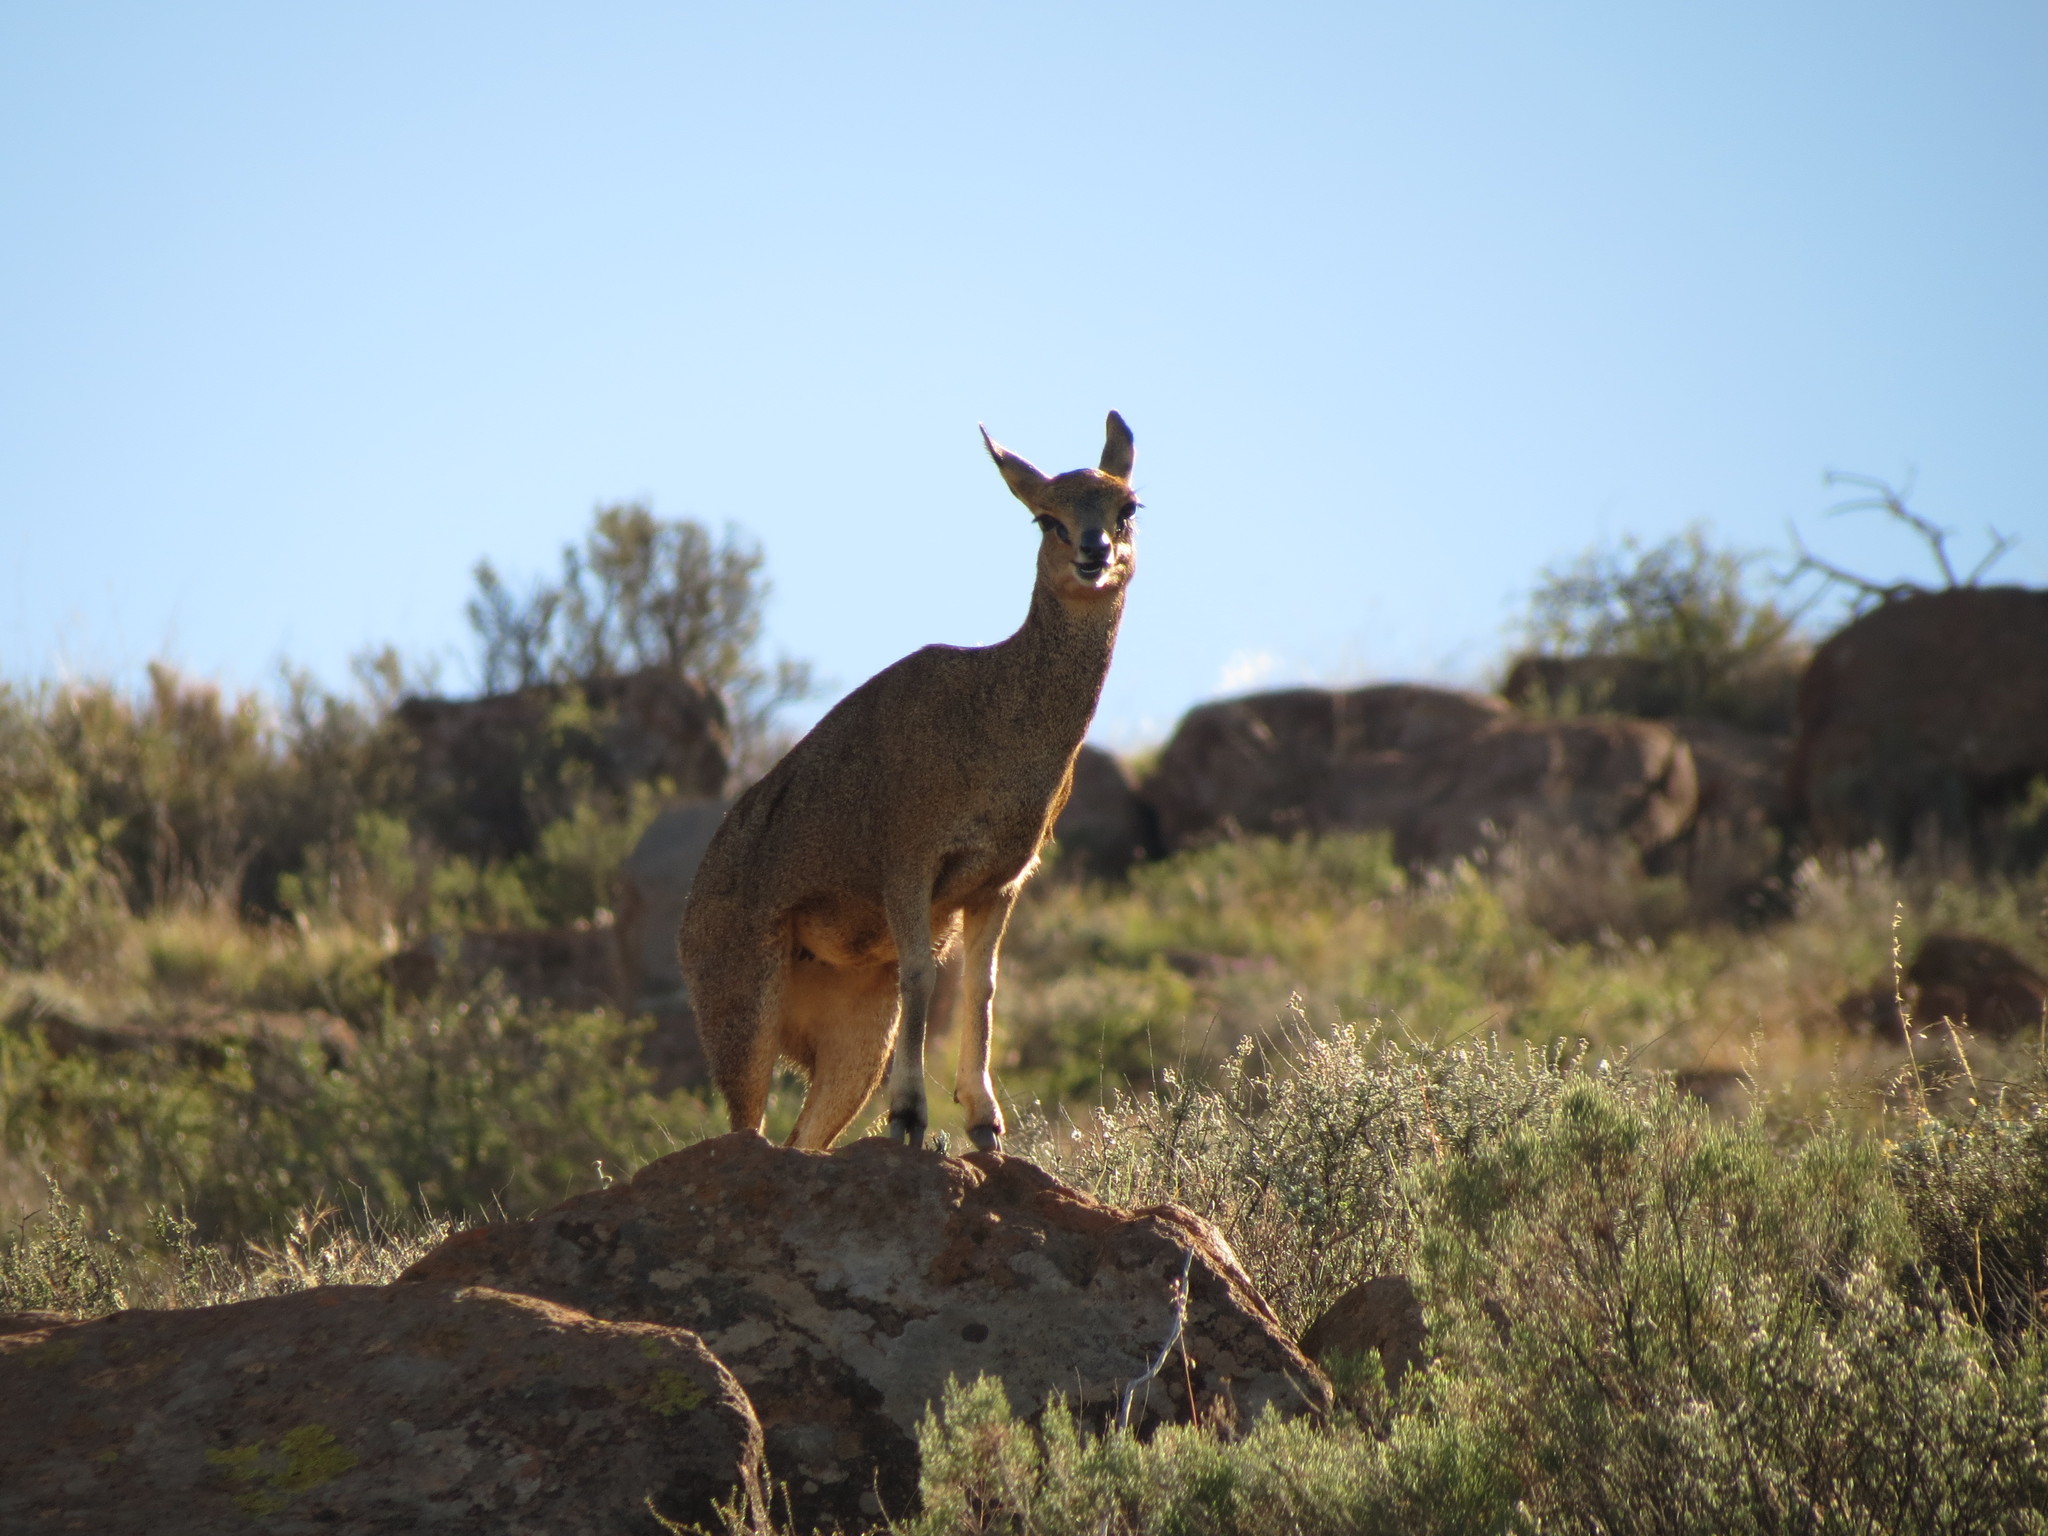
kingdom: Animalia
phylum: Chordata
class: Mammalia
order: Artiodactyla
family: Bovidae
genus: Oreotragus
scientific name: Oreotragus oreotragus
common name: Klipspringer
